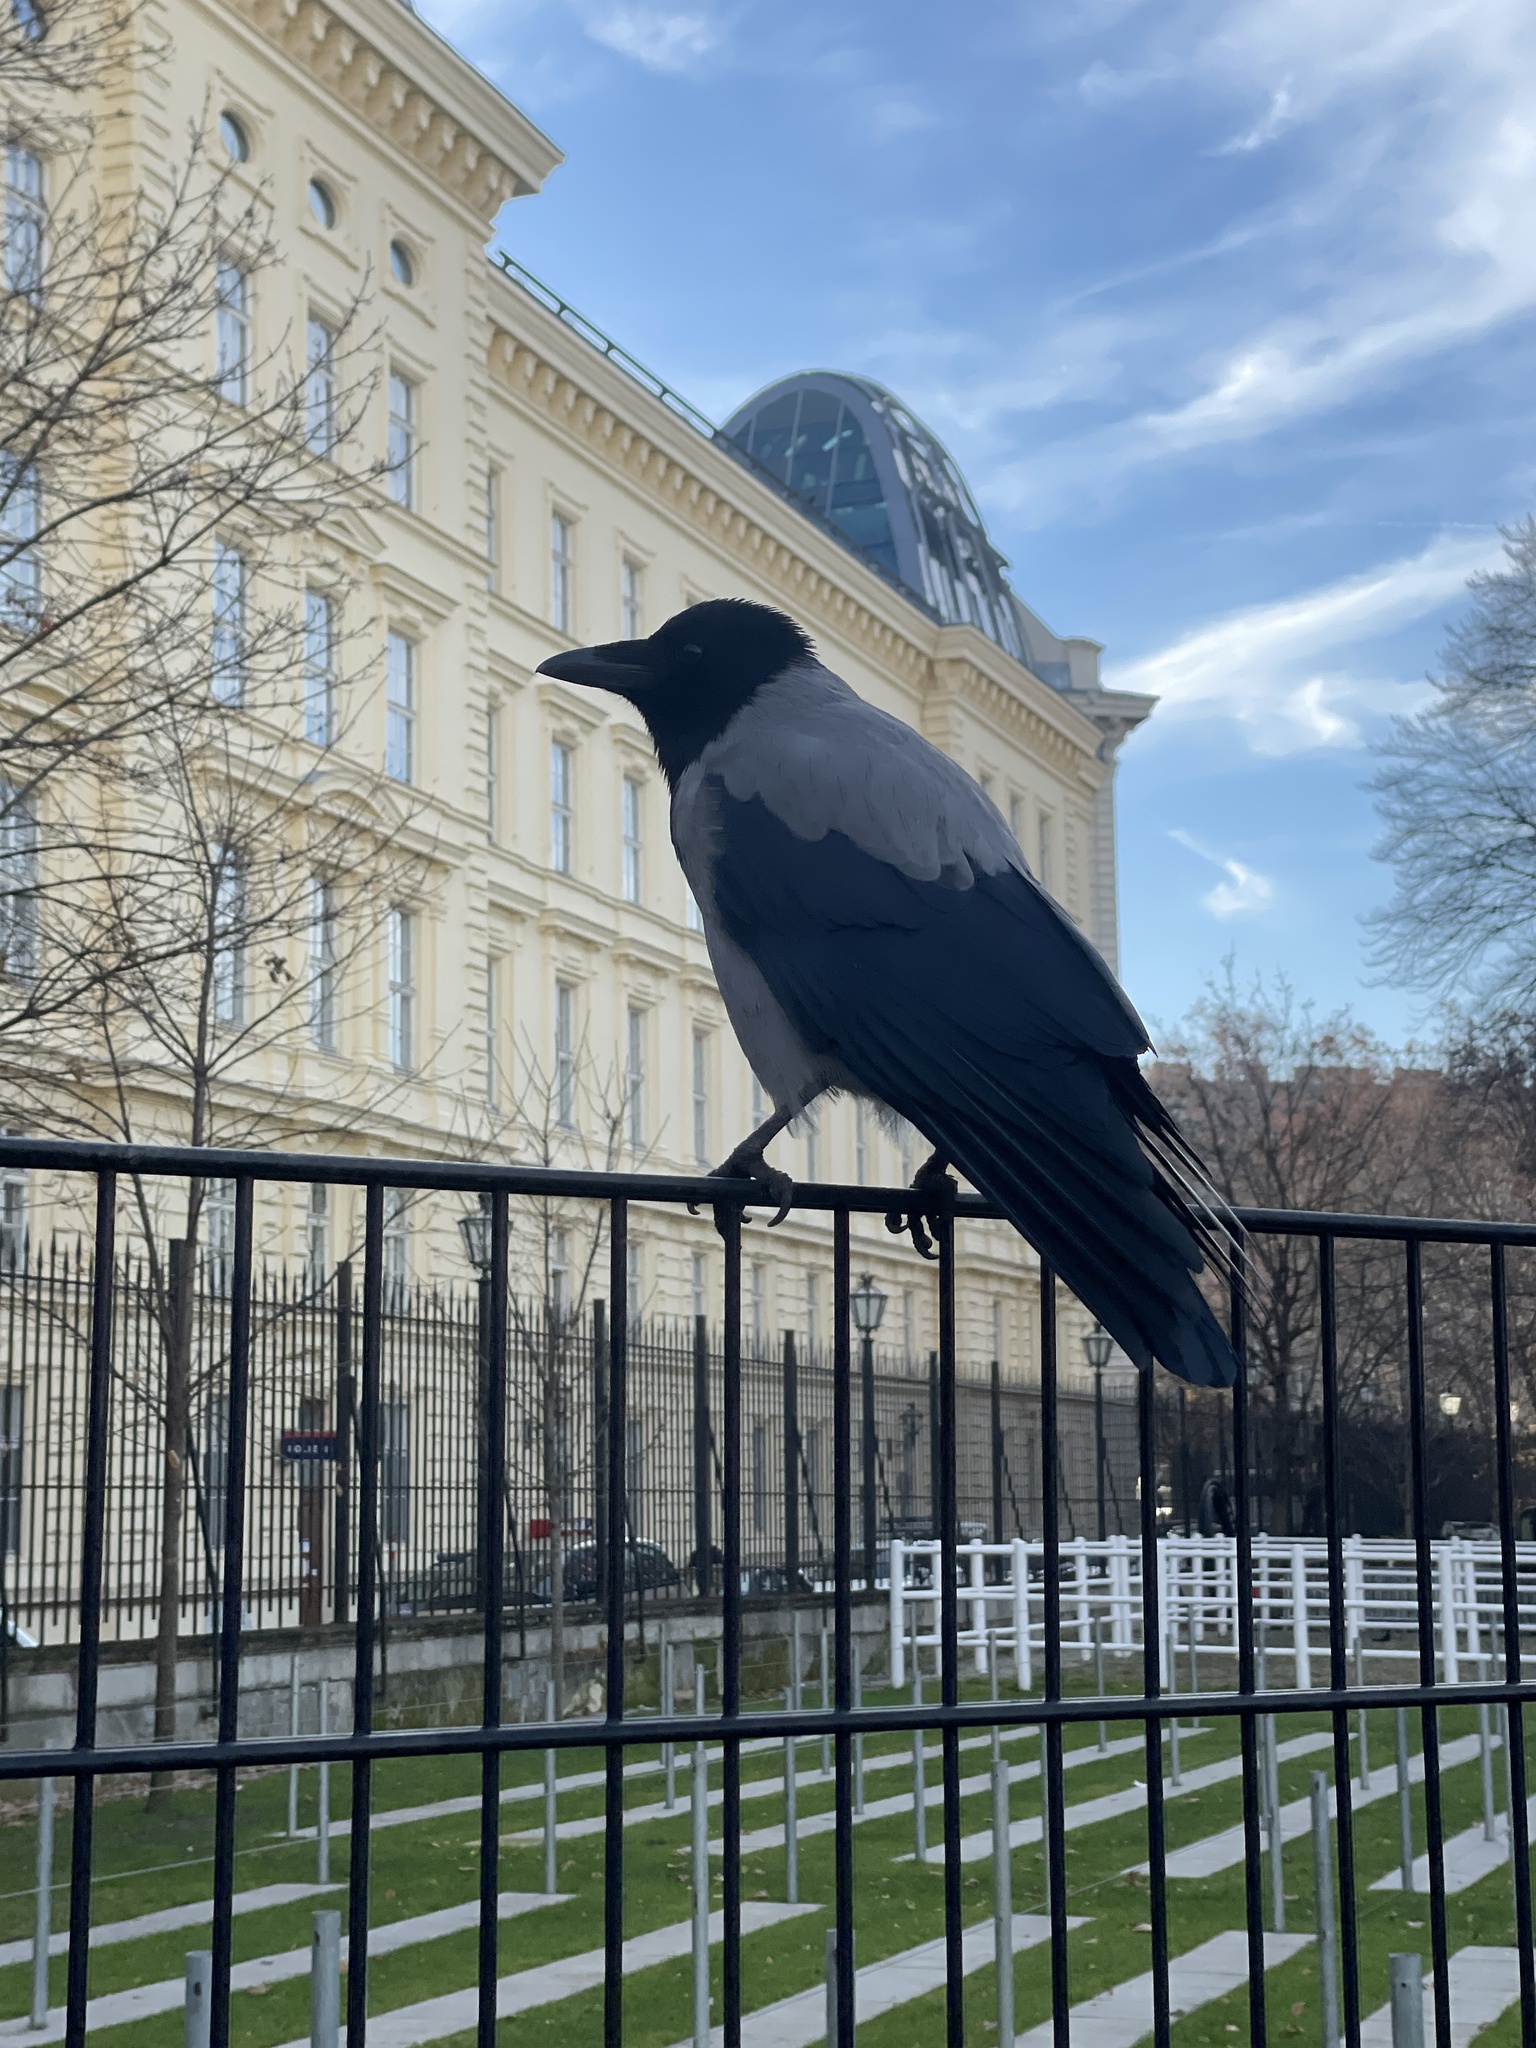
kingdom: Animalia
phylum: Chordata
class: Aves
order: Passeriformes
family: Corvidae
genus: Corvus
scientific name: Corvus cornix
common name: Hooded crow
